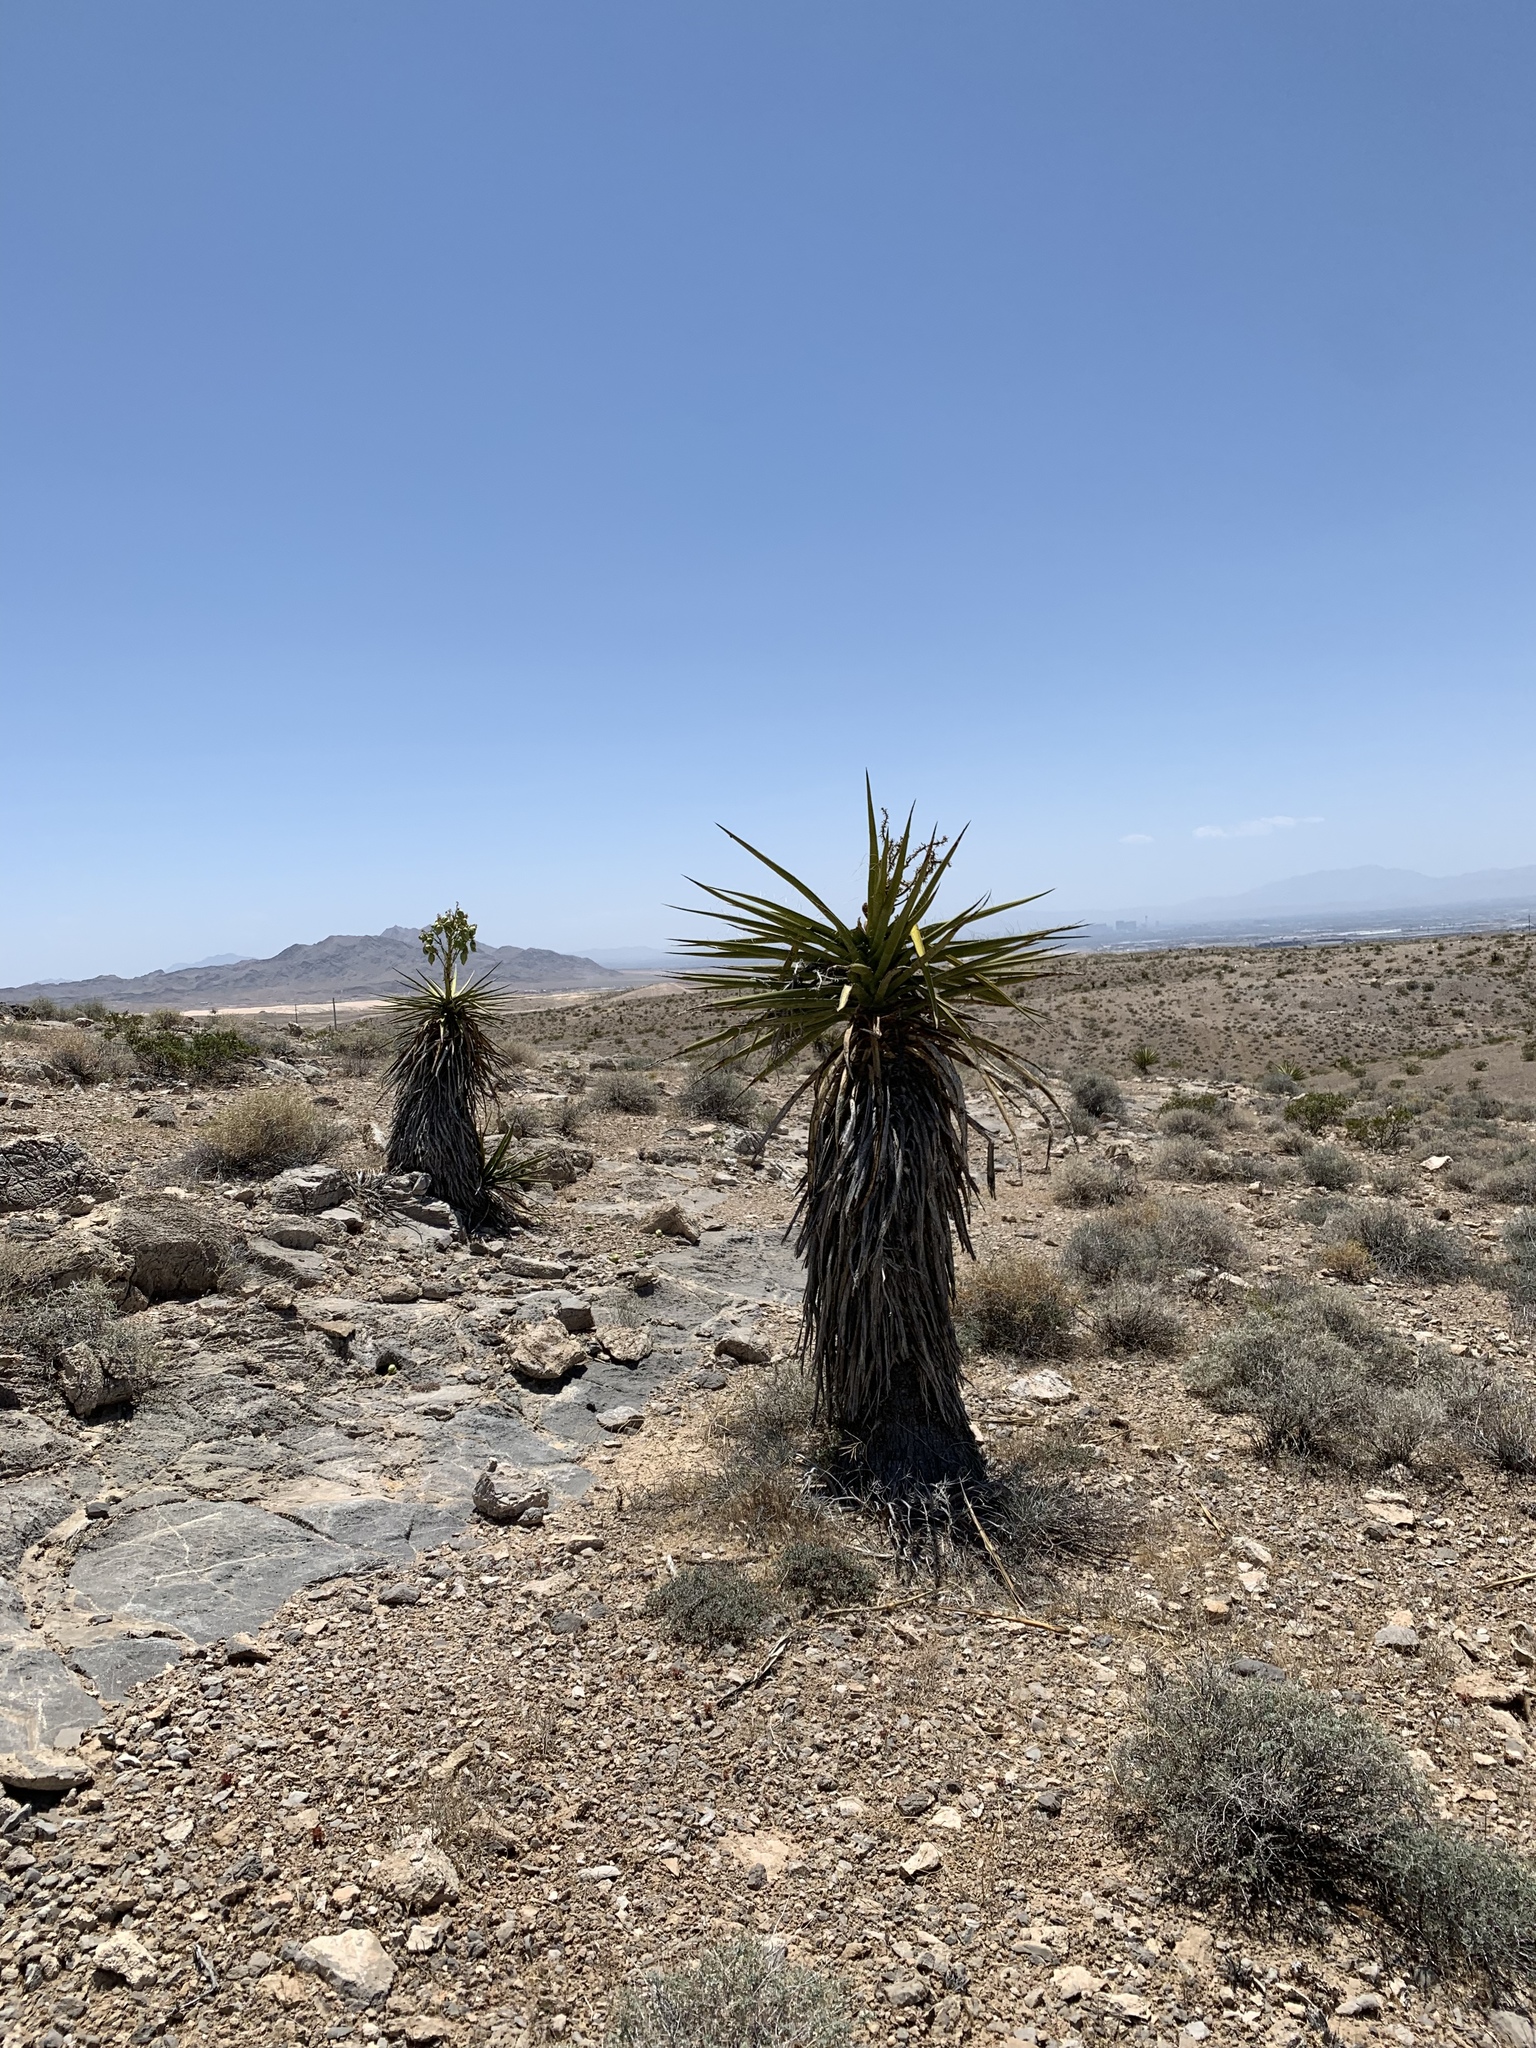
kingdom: Plantae
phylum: Tracheophyta
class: Liliopsida
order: Asparagales
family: Asparagaceae
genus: Yucca
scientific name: Yucca schidigera
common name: Mojave yucca
